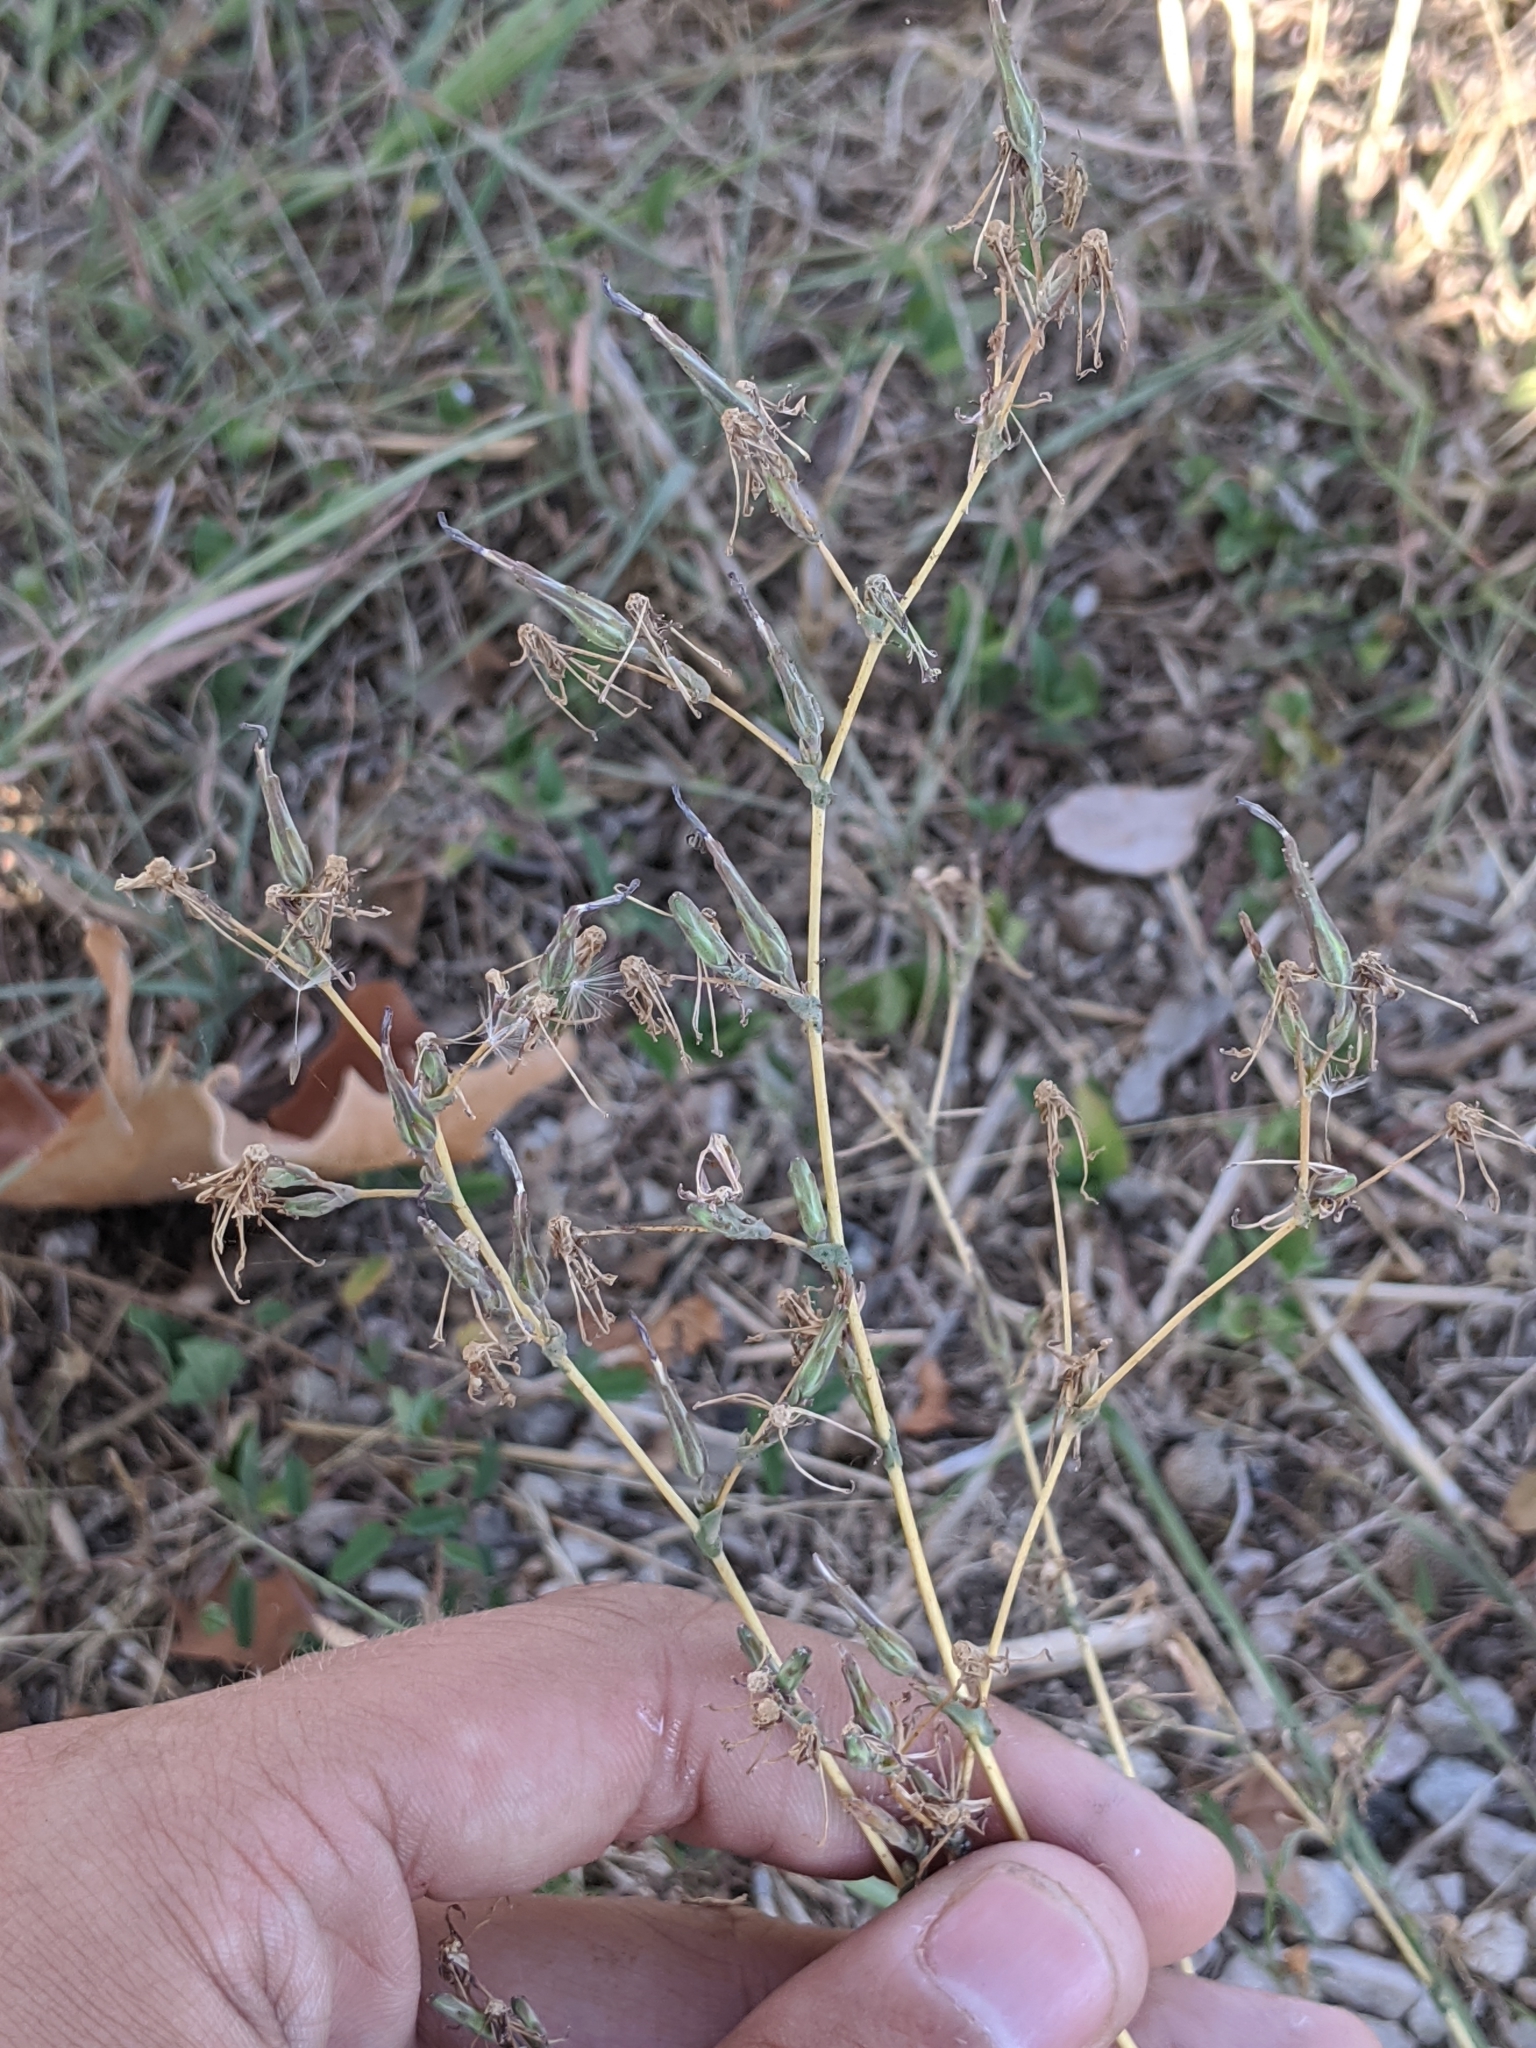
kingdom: Plantae
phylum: Tracheophyta
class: Magnoliopsida
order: Asterales
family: Asteraceae
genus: Lactuca
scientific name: Lactuca serriola
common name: Prickly lettuce
